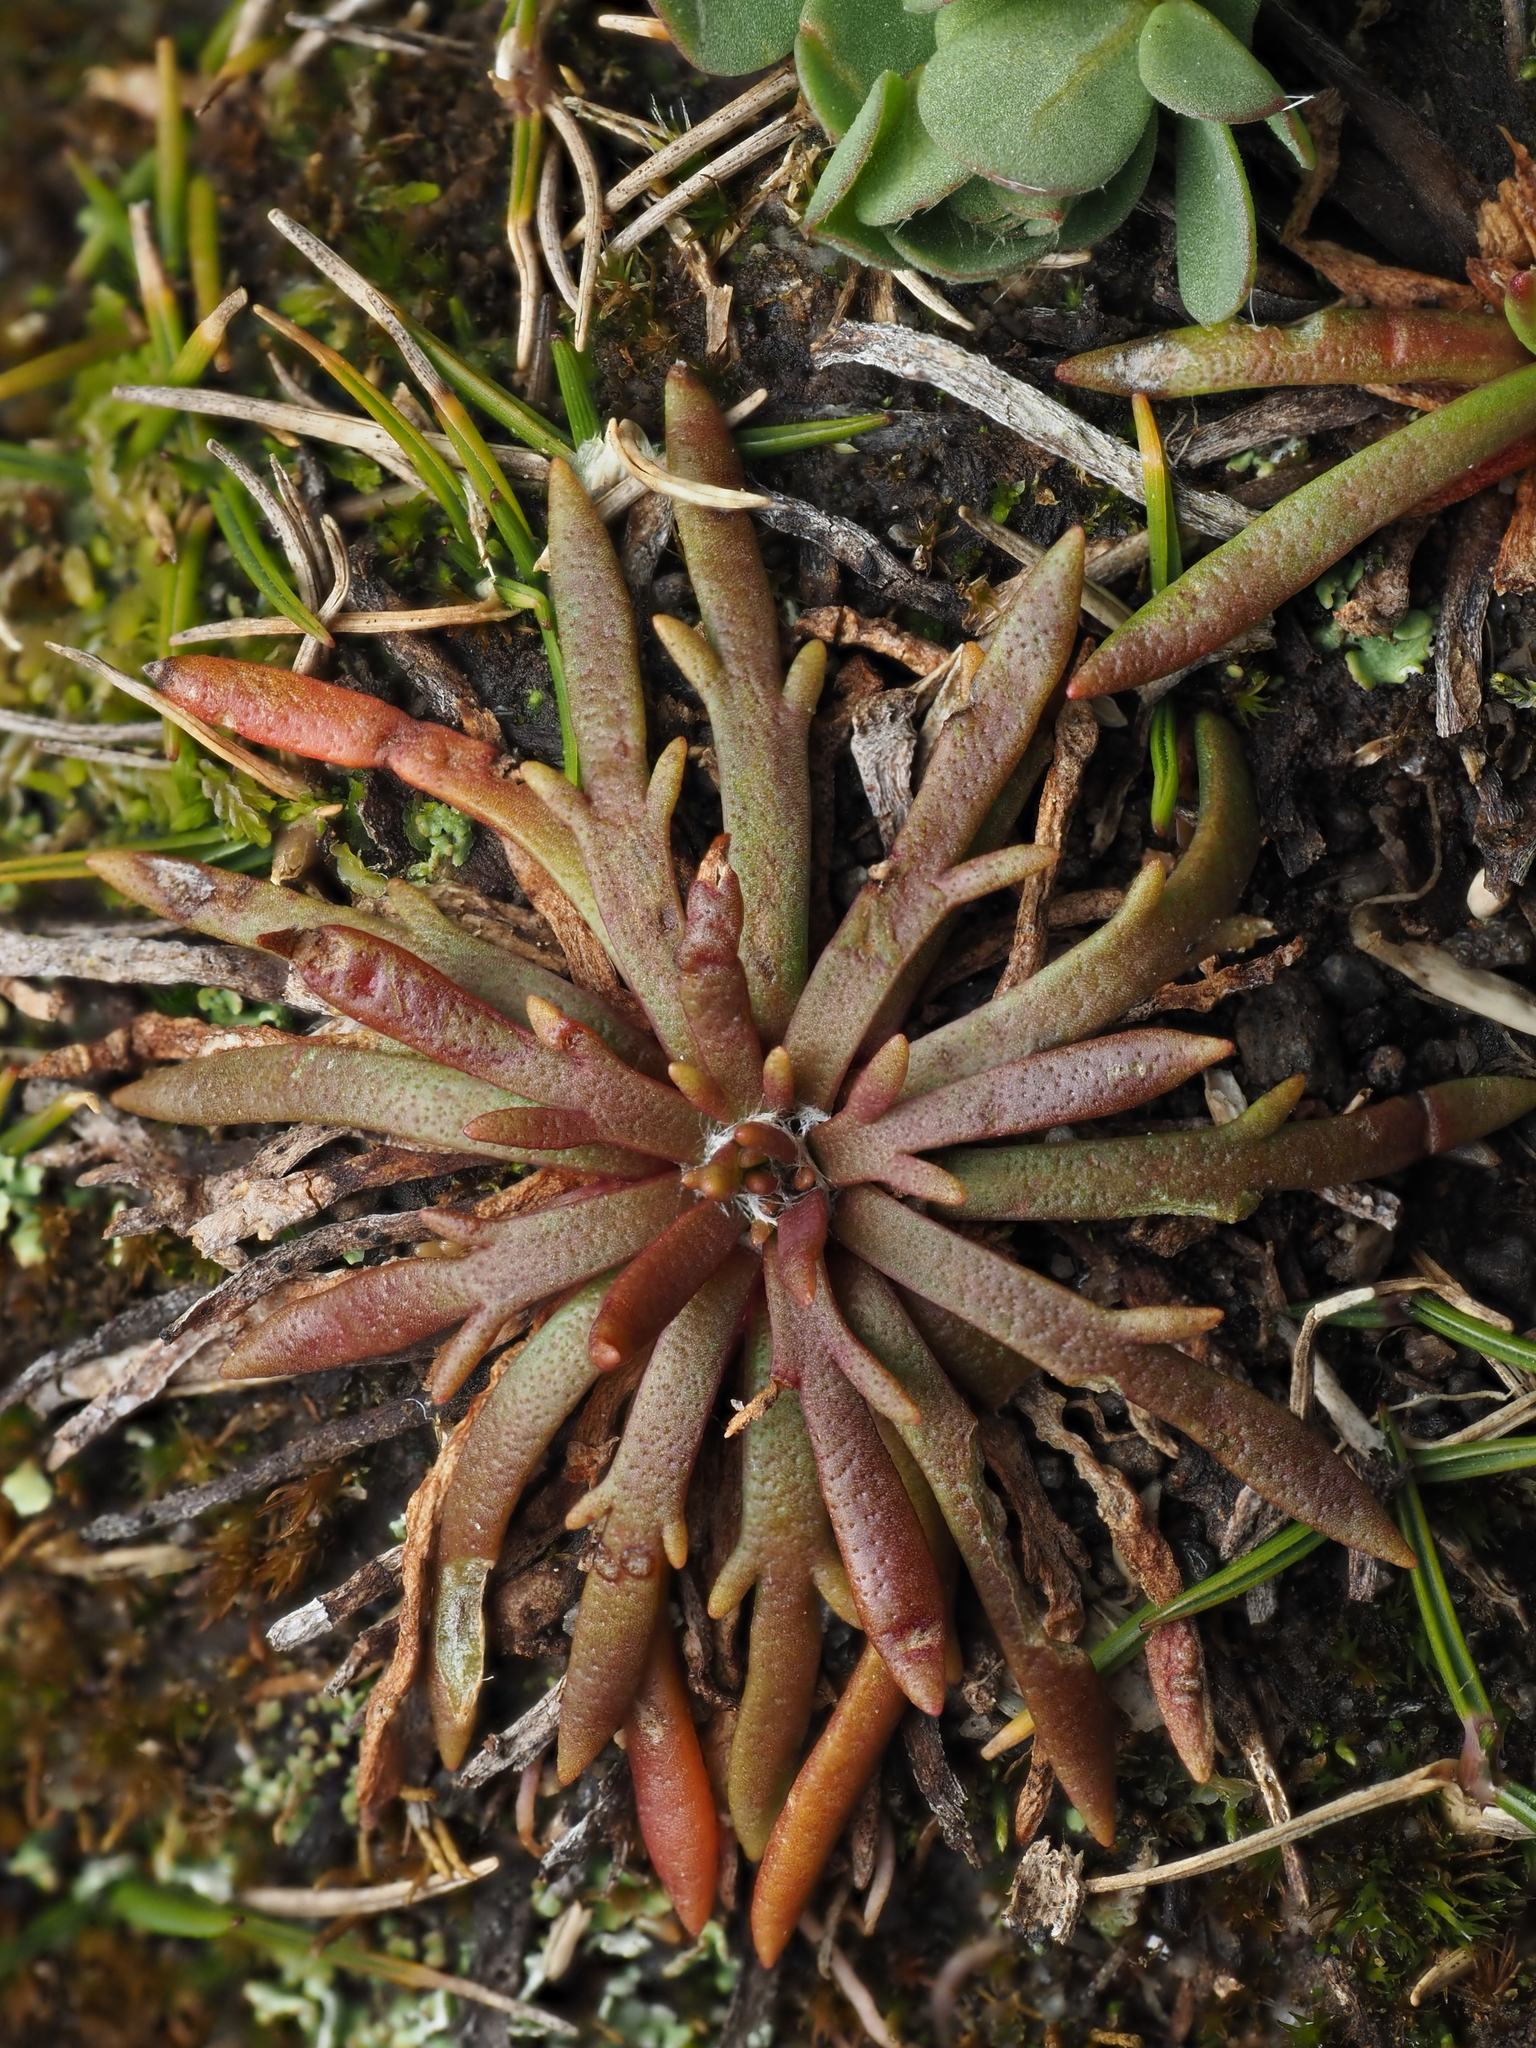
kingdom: Plantae
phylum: Tracheophyta
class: Magnoliopsida
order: Lamiales
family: Plantaginaceae
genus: Plantago
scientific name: Plantago coronopus
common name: Buck's-horn plantain
